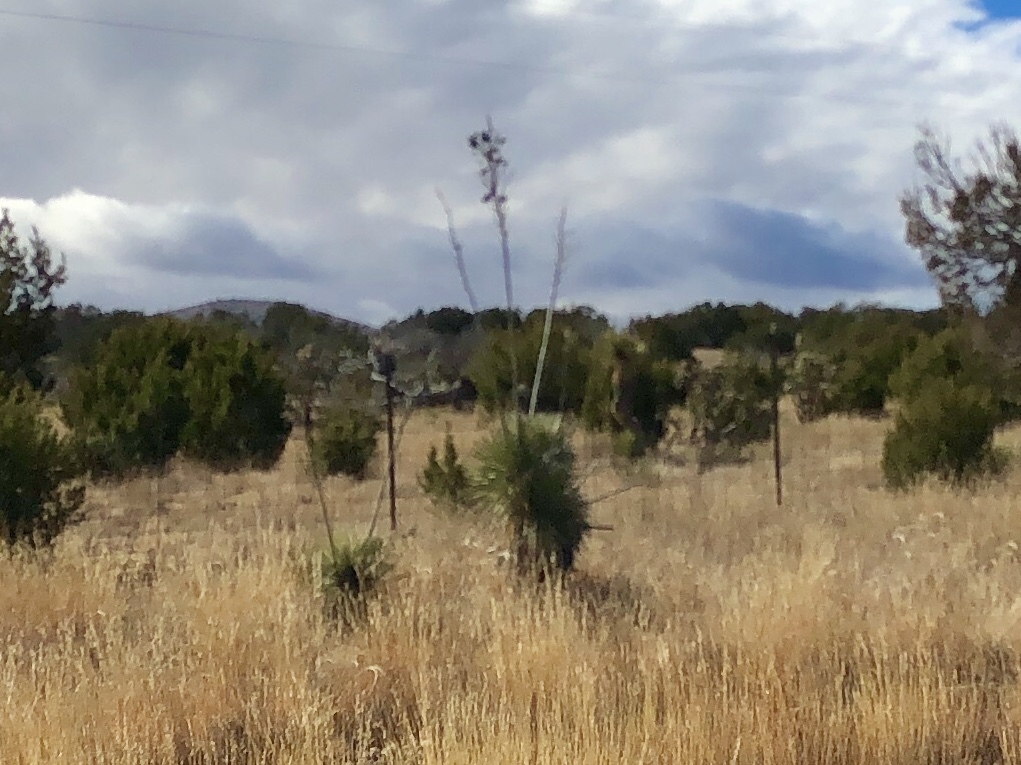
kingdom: Plantae
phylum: Tracheophyta
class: Liliopsida
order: Asparagales
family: Asparagaceae
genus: Yucca
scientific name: Yucca elata
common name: Palmella
